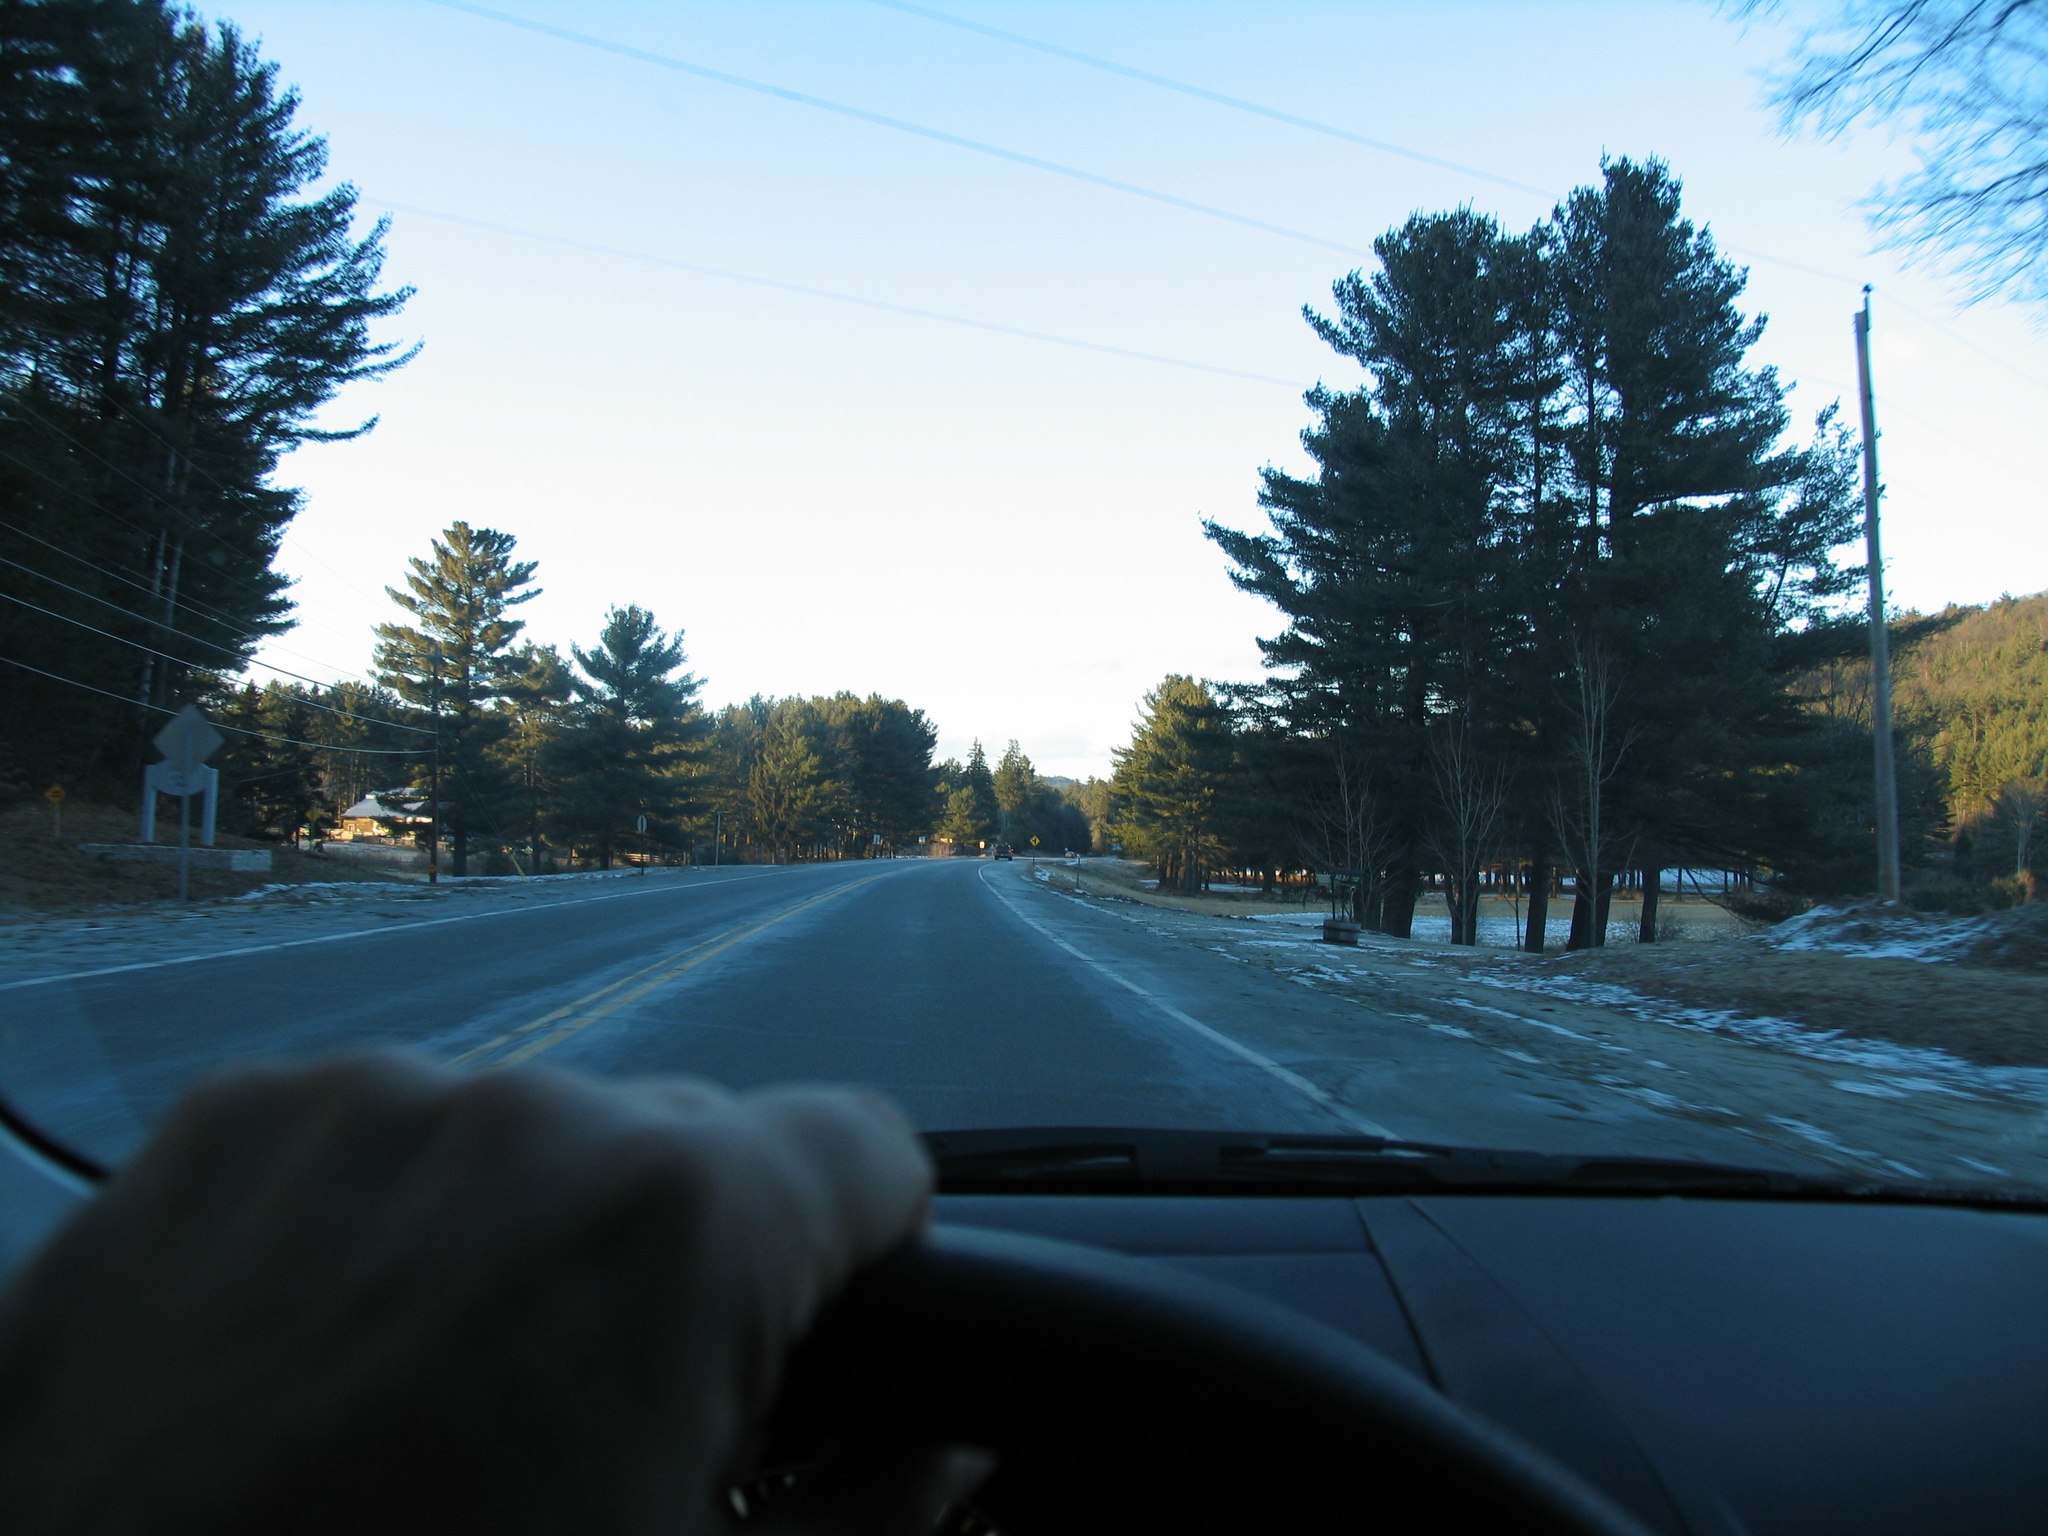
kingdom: Plantae
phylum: Tracheophyta
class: Pinopsida
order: Pinales
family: Pinaceae
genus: Pinus
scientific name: Pinus strobus
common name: Weymouth pine
